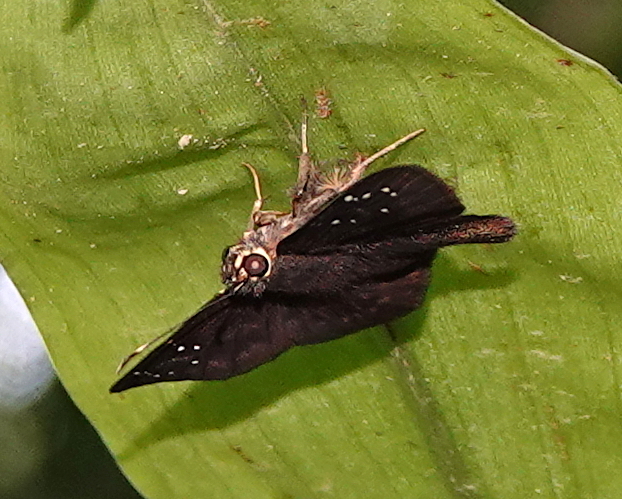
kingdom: Animalia
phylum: Arthropoda
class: Insecta
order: Lepidoptera
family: Hesperiidae
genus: Celaenorrhinus
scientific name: Celaenorrhinus monartus
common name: Dotted flat
